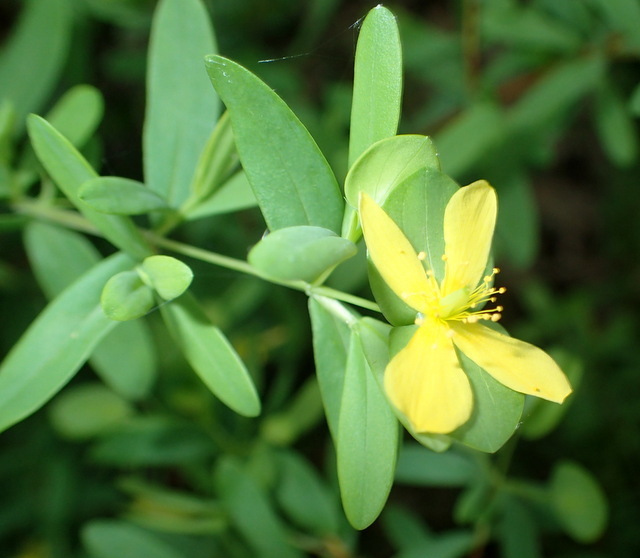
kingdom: Plantae
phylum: Tracheophyta
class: Magnoliopsida
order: Malpighiales
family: Hypericaceae
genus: Hypericum
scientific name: Hypericum hypericoides
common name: St. andrew's cross
